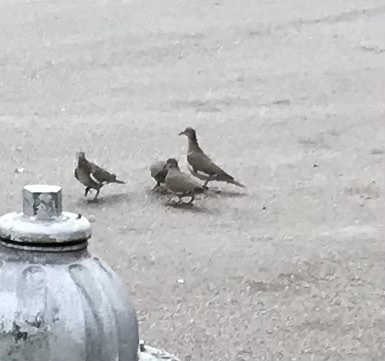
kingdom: Animalia
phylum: Chordata
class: Aves
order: Columbiformes
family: Columbidae
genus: Zenaida
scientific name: Zenaida asiatica
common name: White-winged dove
